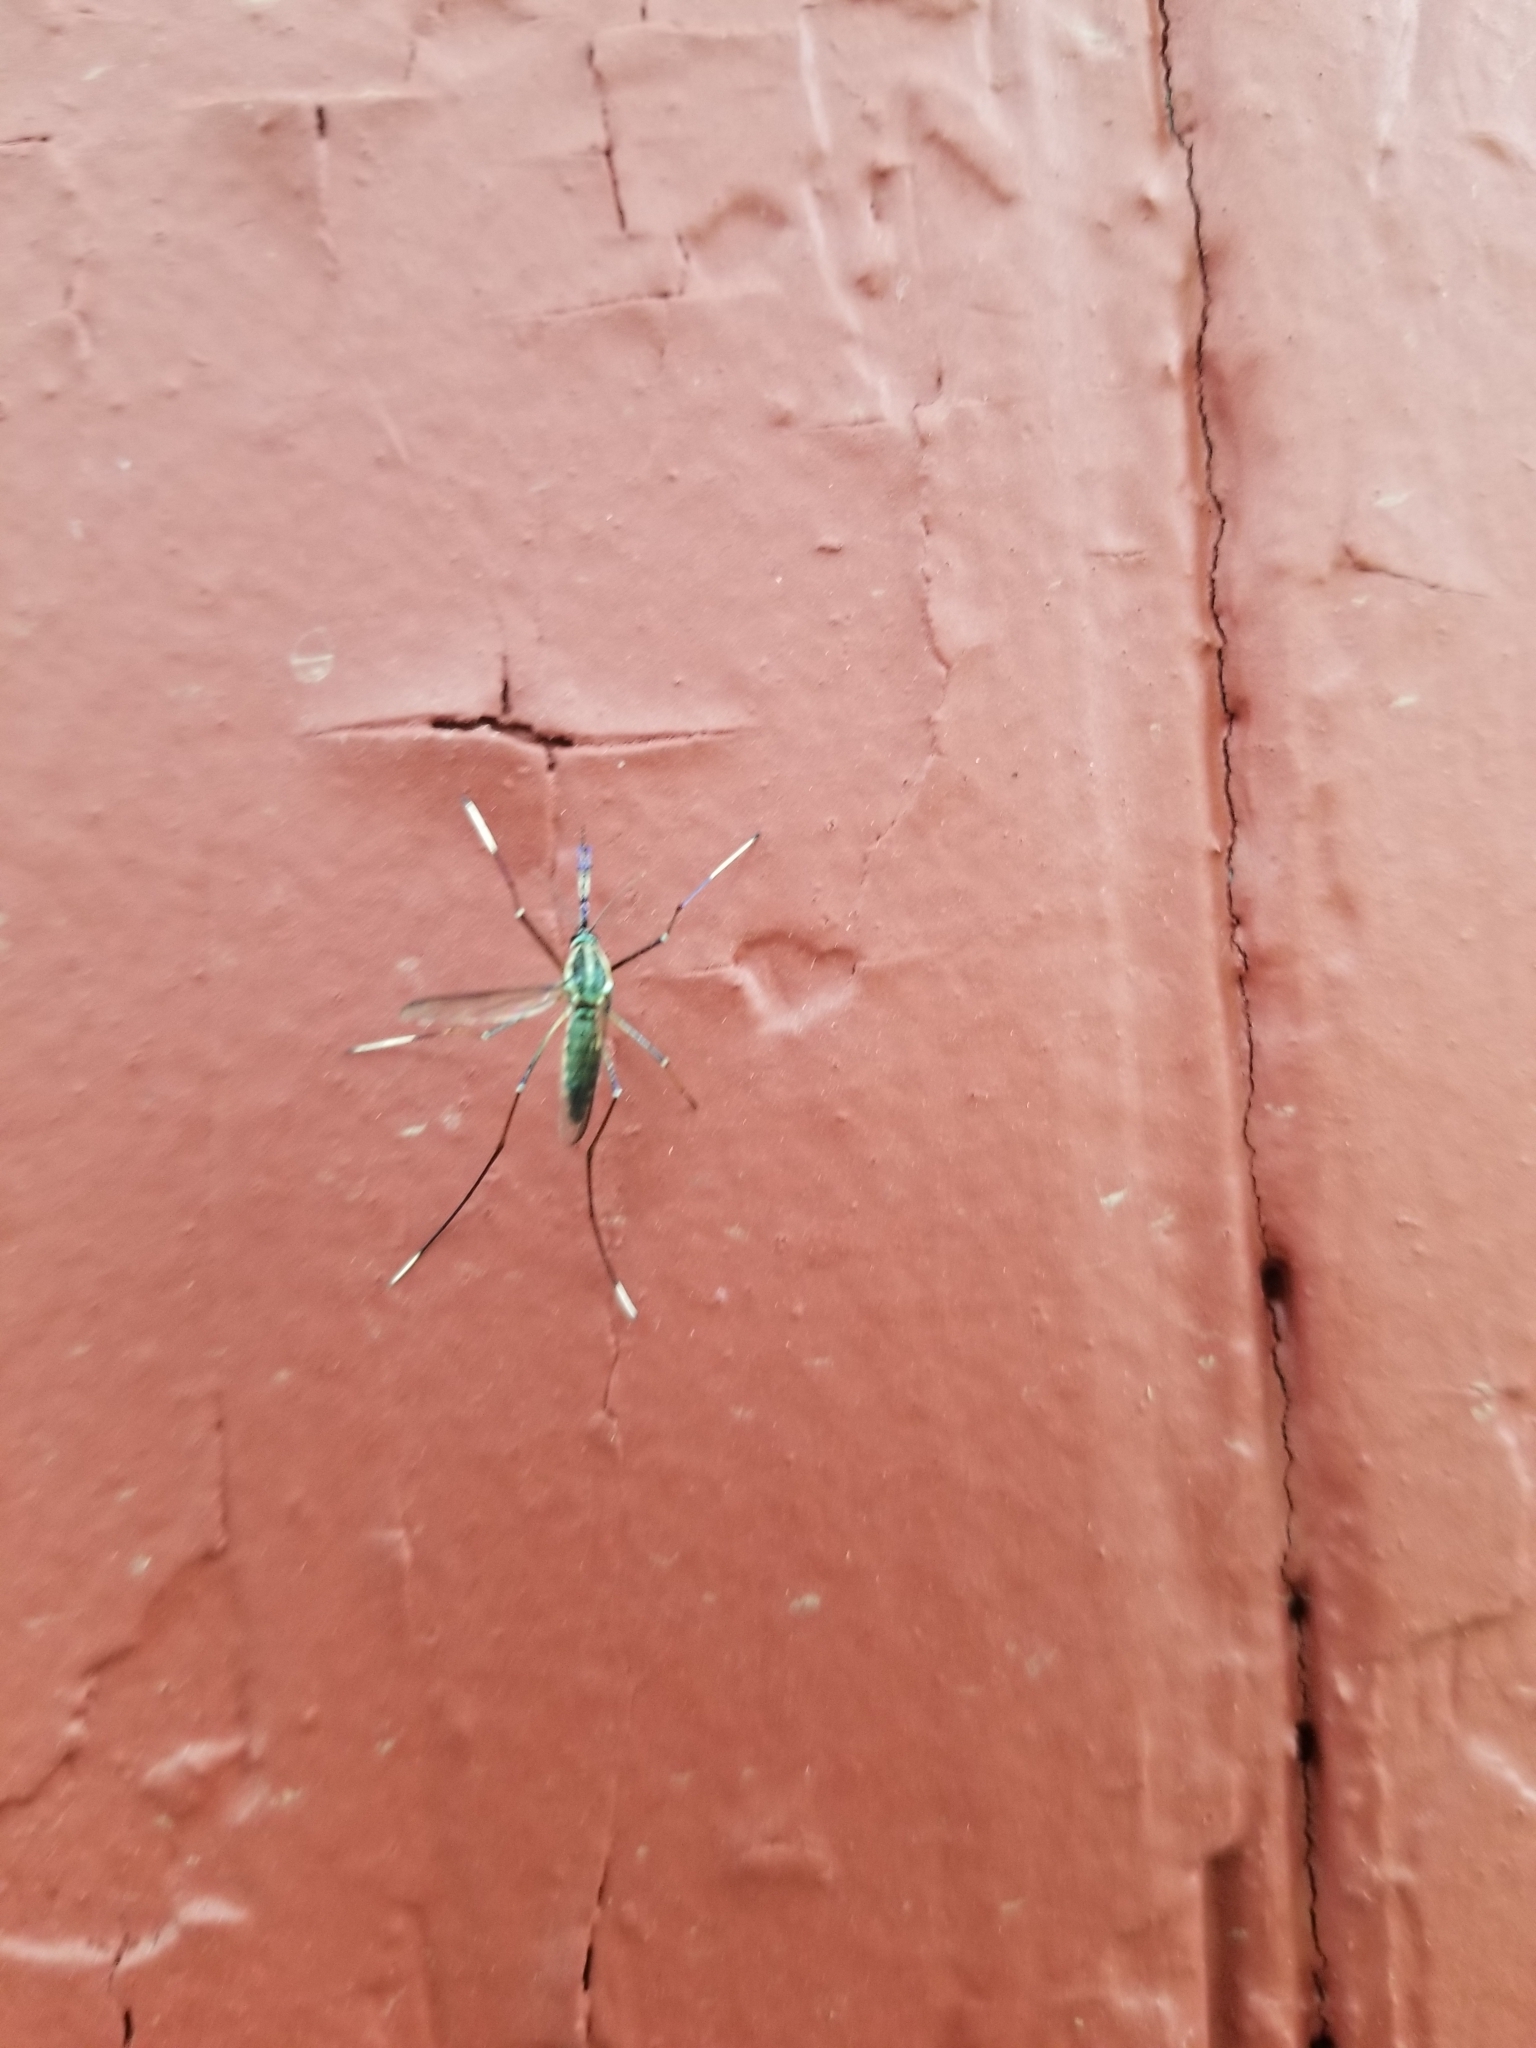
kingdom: Animalia
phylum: Arthropoda
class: Insecta
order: Diptera
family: Culicidae
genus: Toxorhynchites
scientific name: Toxorhynchites rutilus
